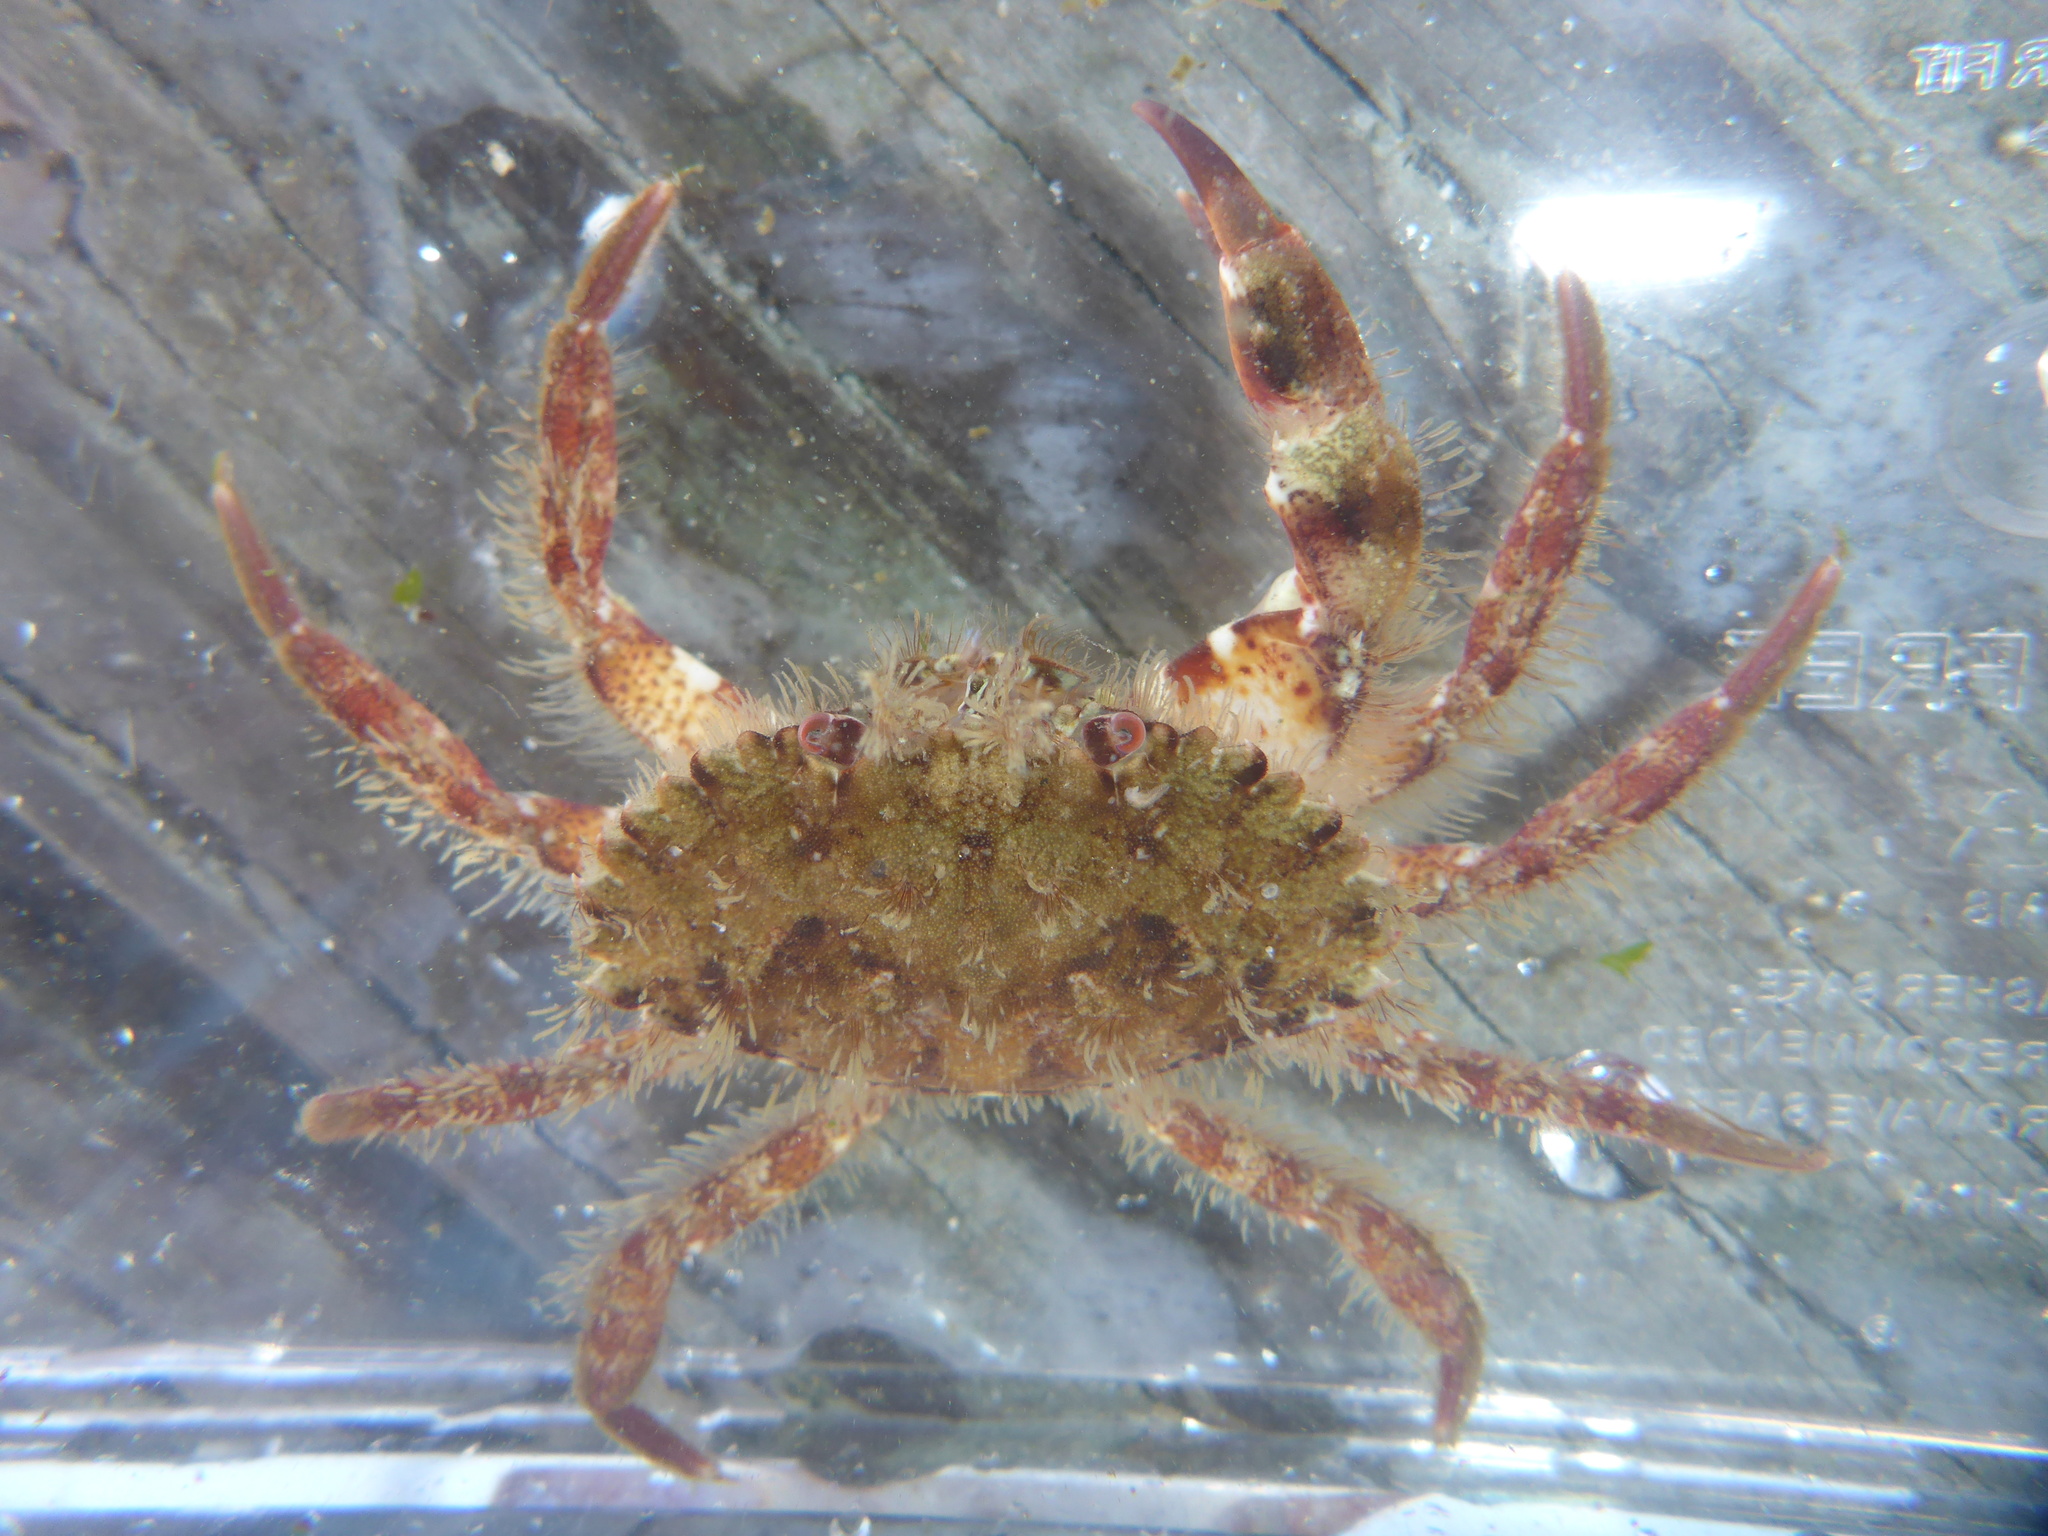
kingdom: Animalia
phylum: Arthropoda
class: Malacostraca
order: Decapoda
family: Cancridae
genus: Romaleon
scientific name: Romaleon antennarium
